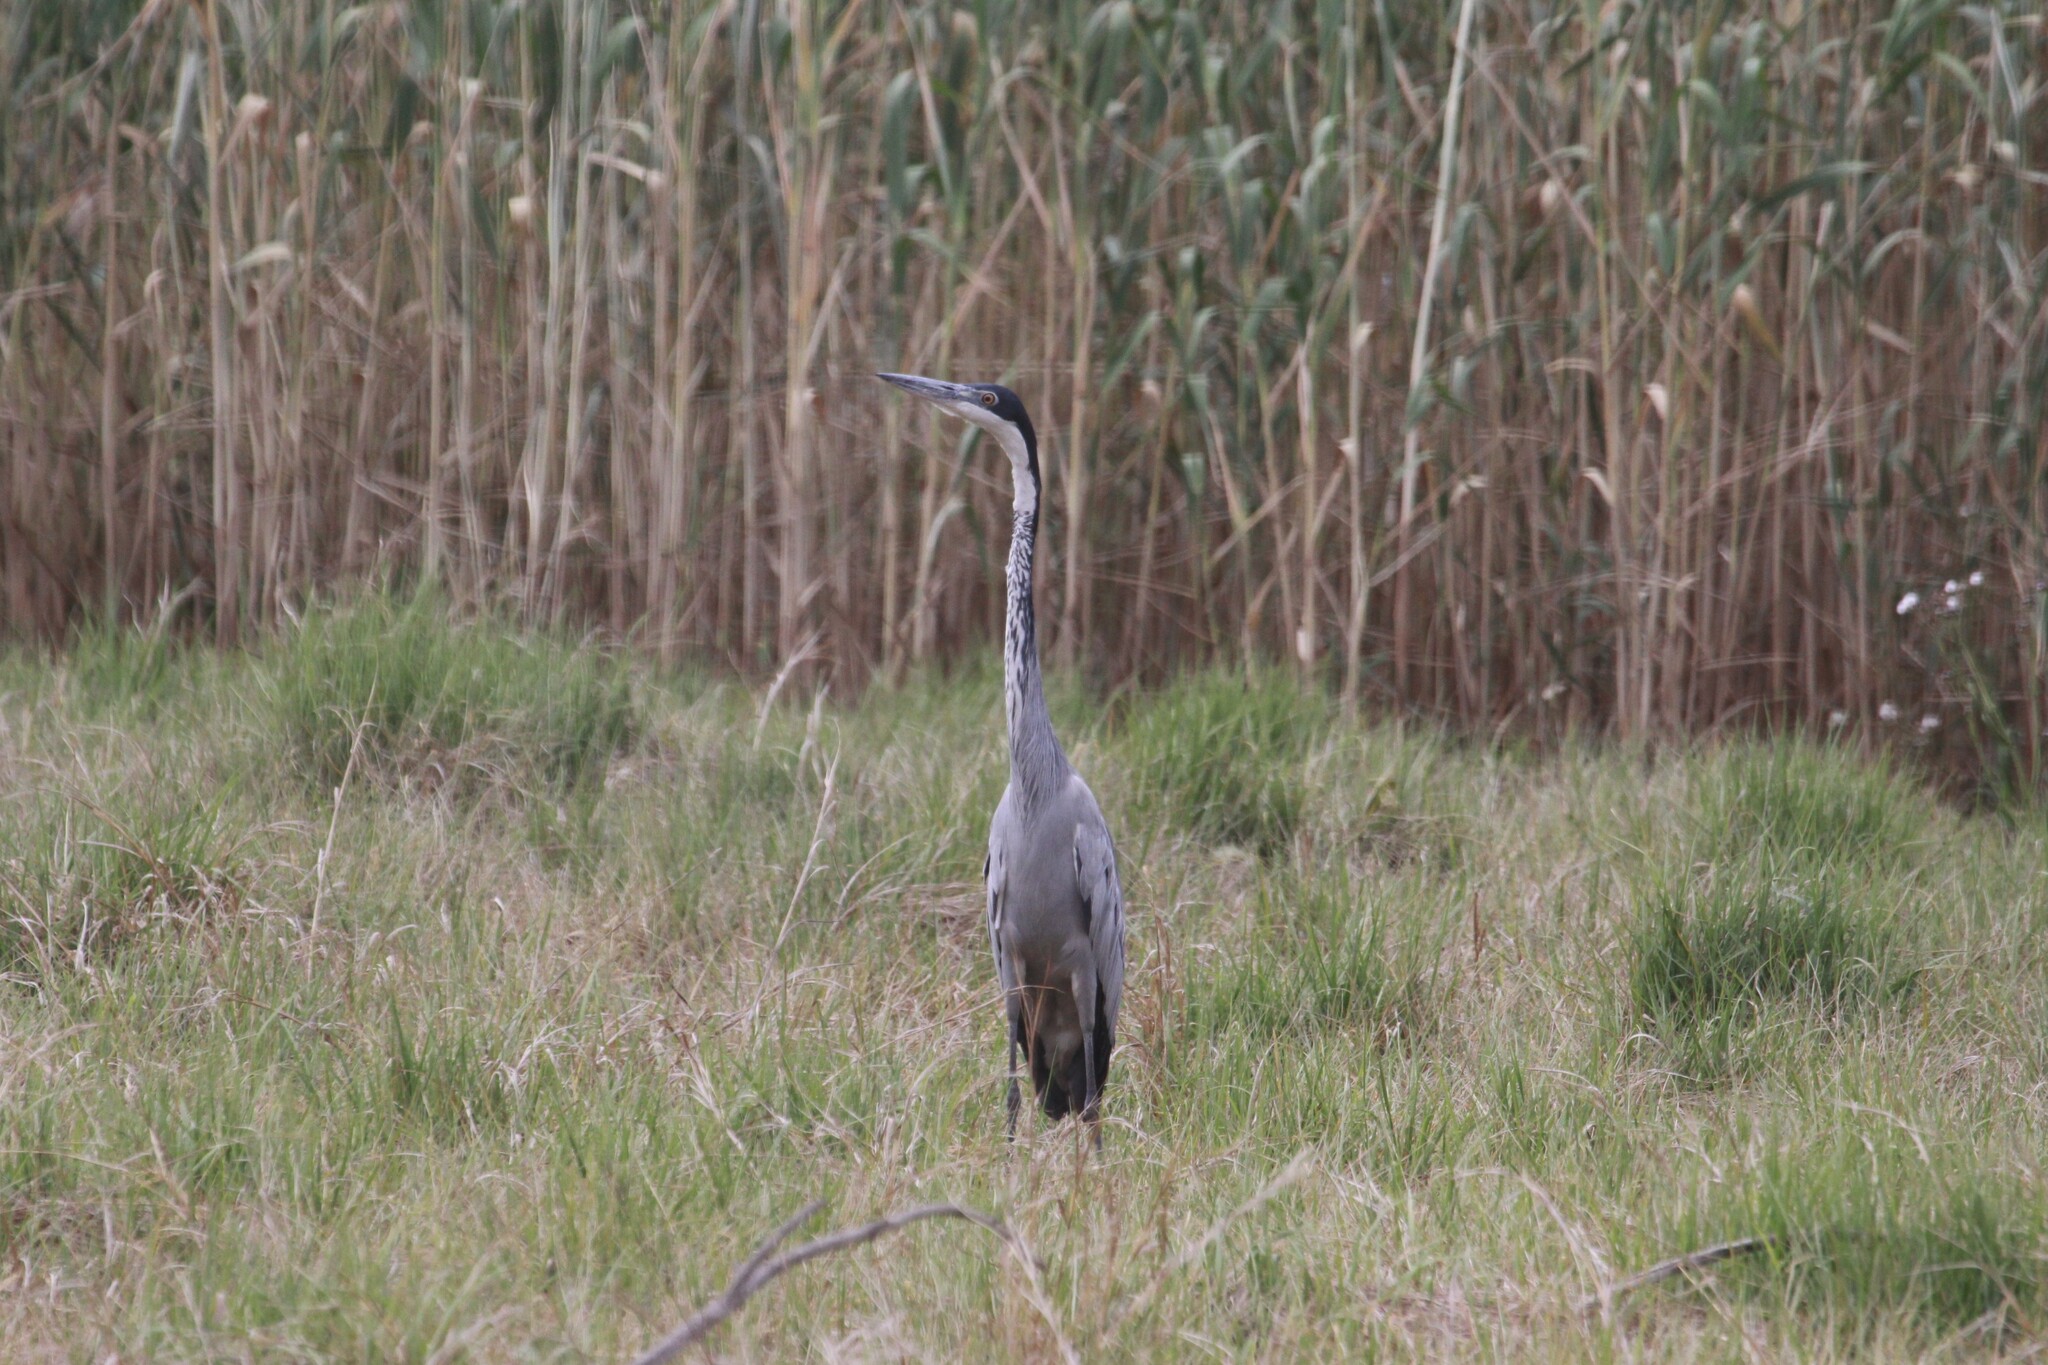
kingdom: Animalia
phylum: Chordata
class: Aves
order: Pelecaniformes
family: Ardeidae
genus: Ardea
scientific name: Ardea melanocephala
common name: Black-headed heron
